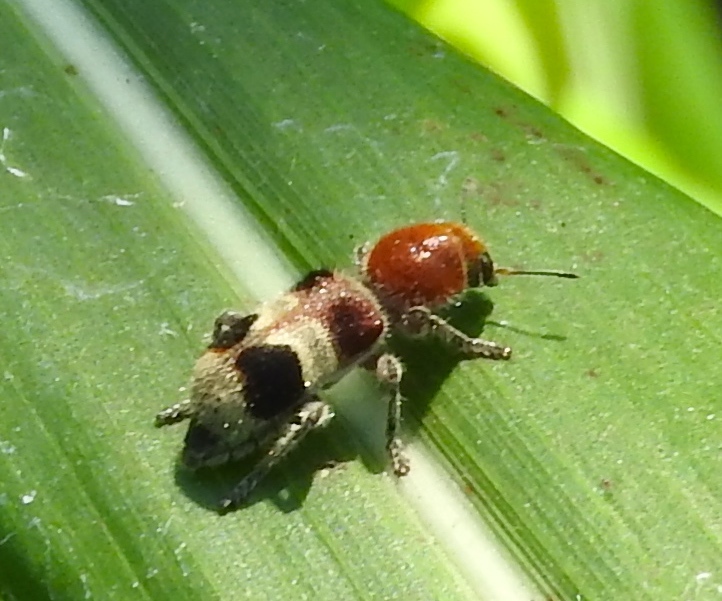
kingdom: Animalia
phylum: Arthropoda
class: Insecta
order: Coleoptera
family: Cleridae
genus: Enoclerus
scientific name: Enoclerus quadriguttatus
